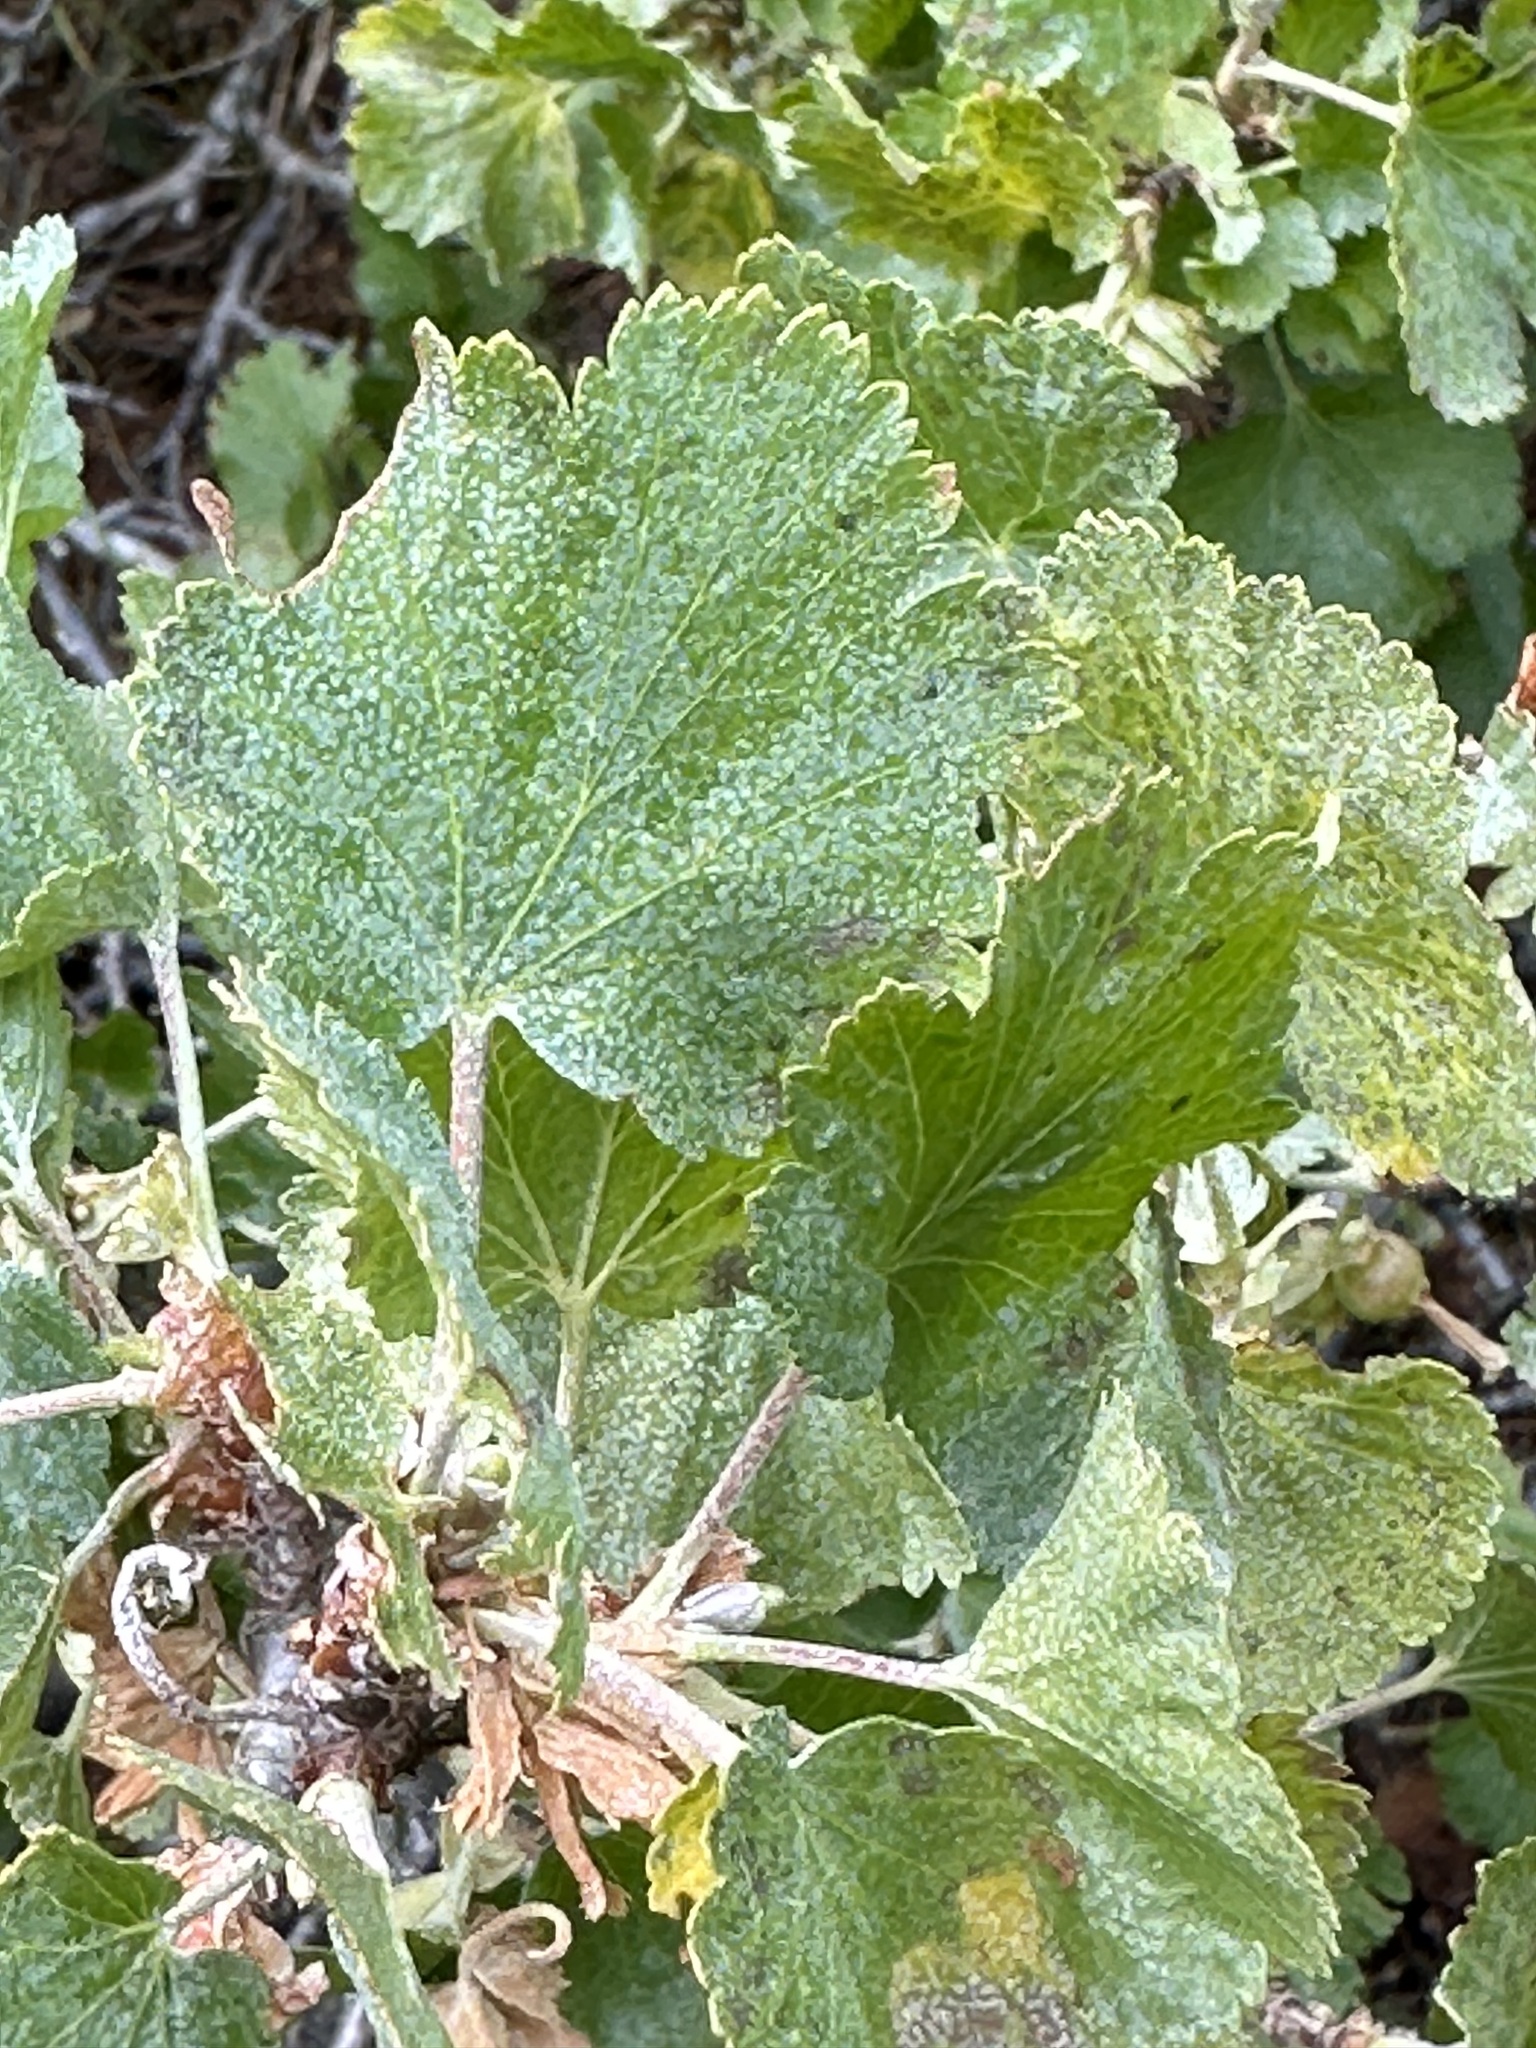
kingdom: Plantae
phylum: Tracheophyta
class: Magnoliopsida
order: Saxifragales
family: Grossulariaceae
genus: Ribes
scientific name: Ribes cereum
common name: Wax currant
